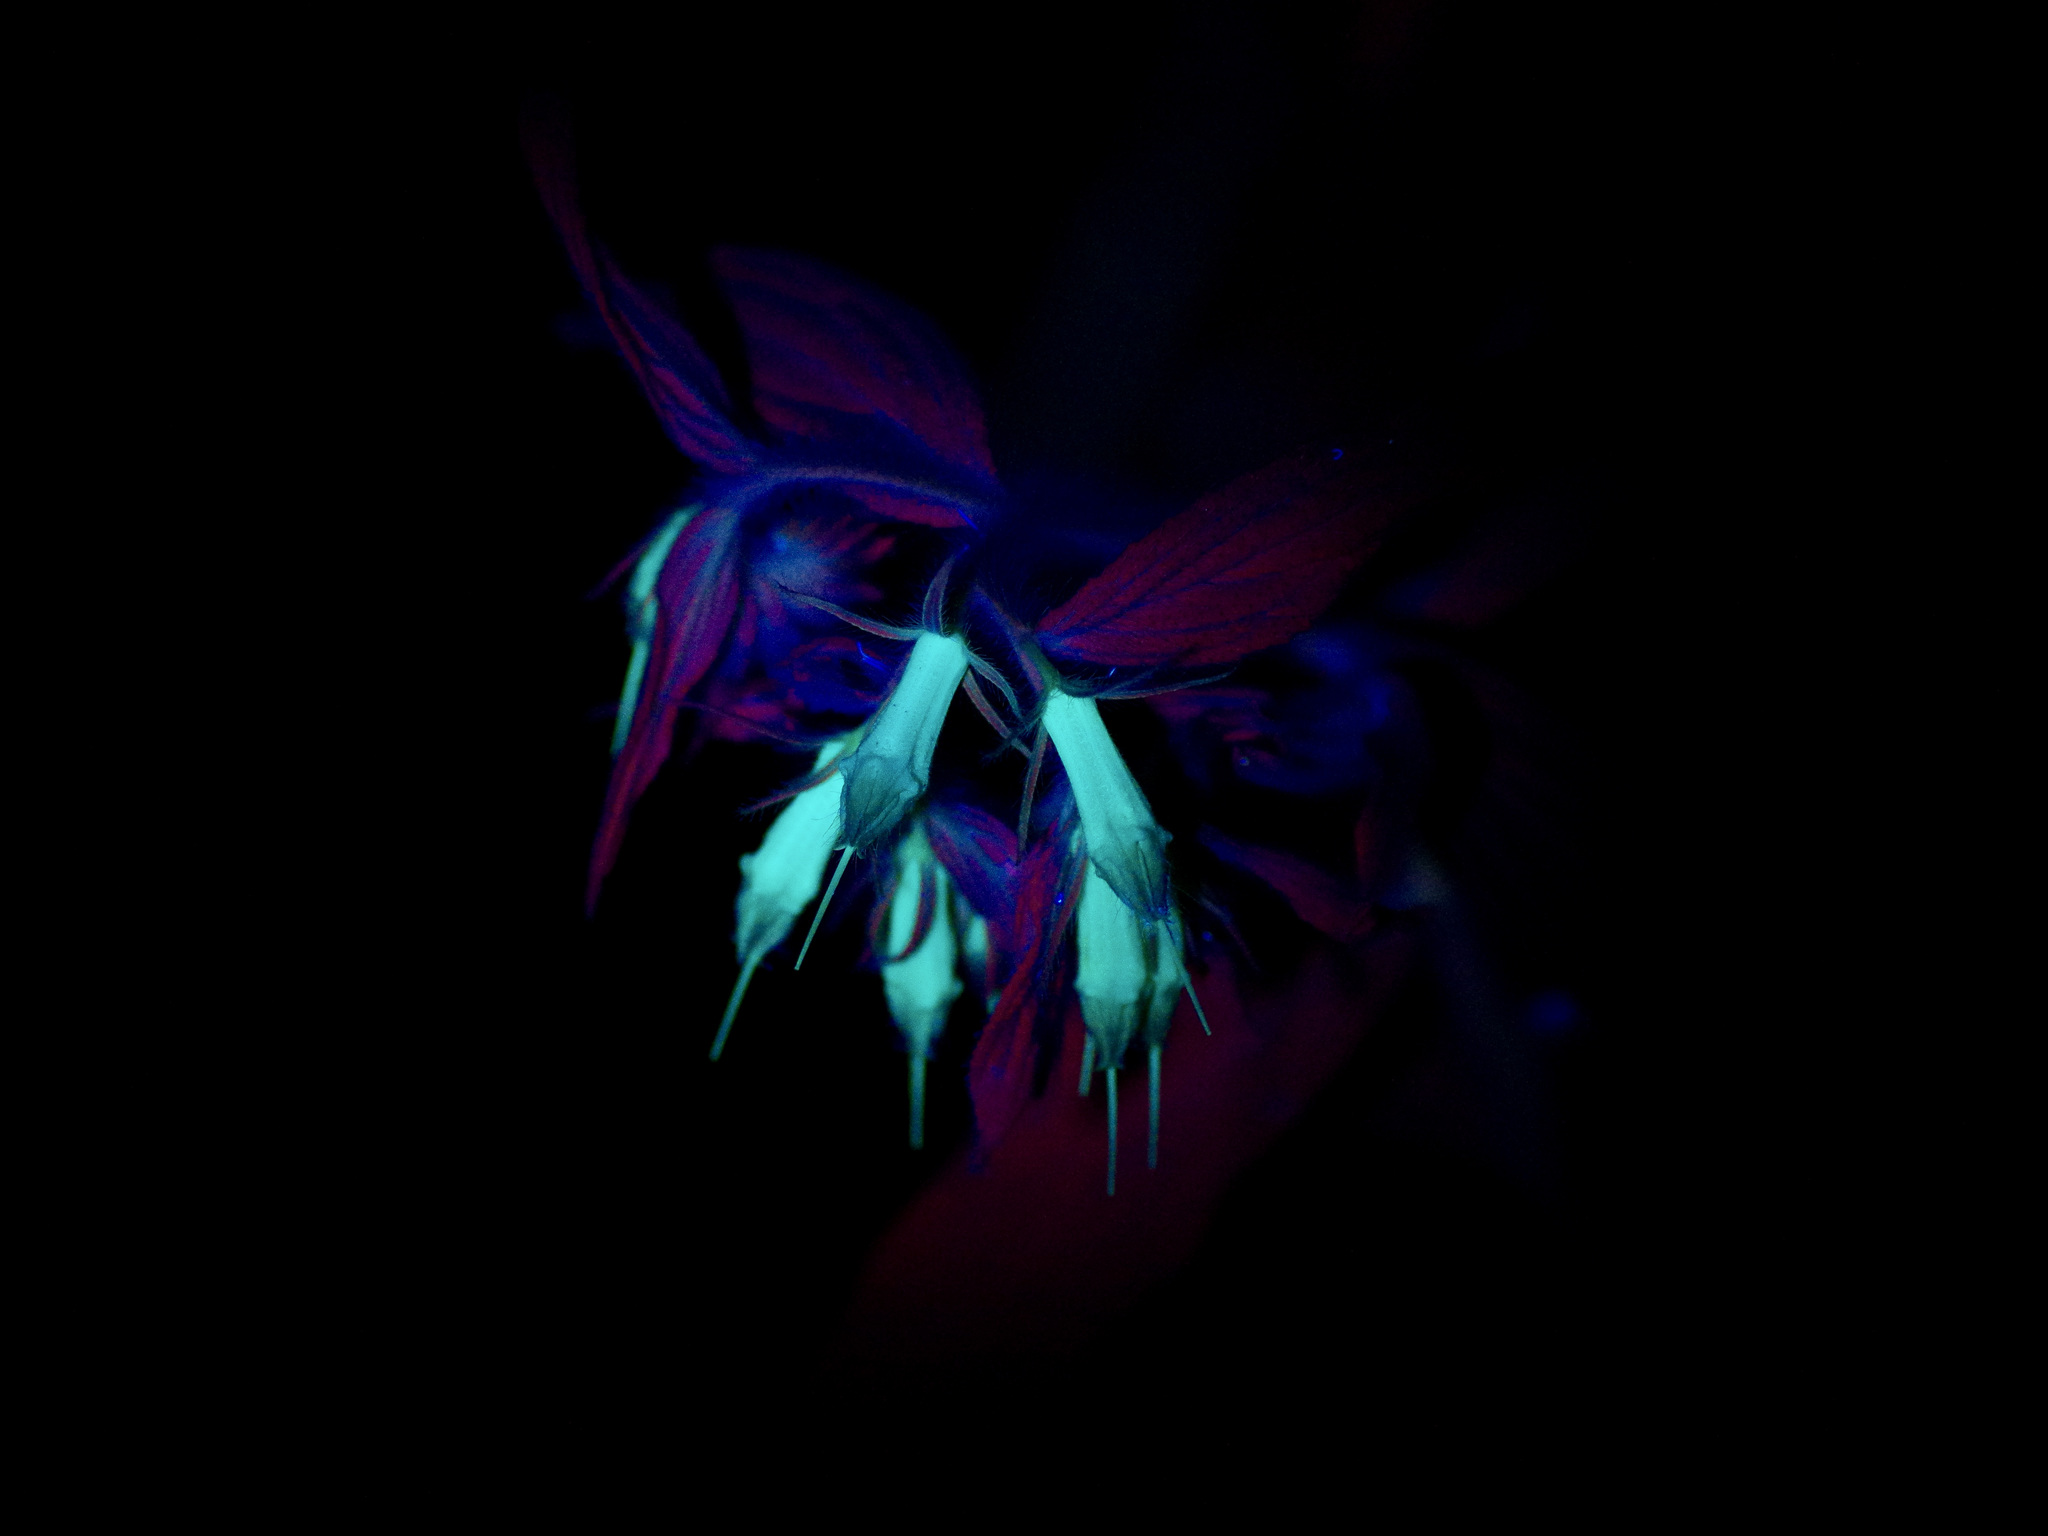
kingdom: Plantae
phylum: Tracheophyta
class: Magnoliopsida
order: Boraginales
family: Boraginaceae
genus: Lithospermum
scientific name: Lithospermum caroliniense
